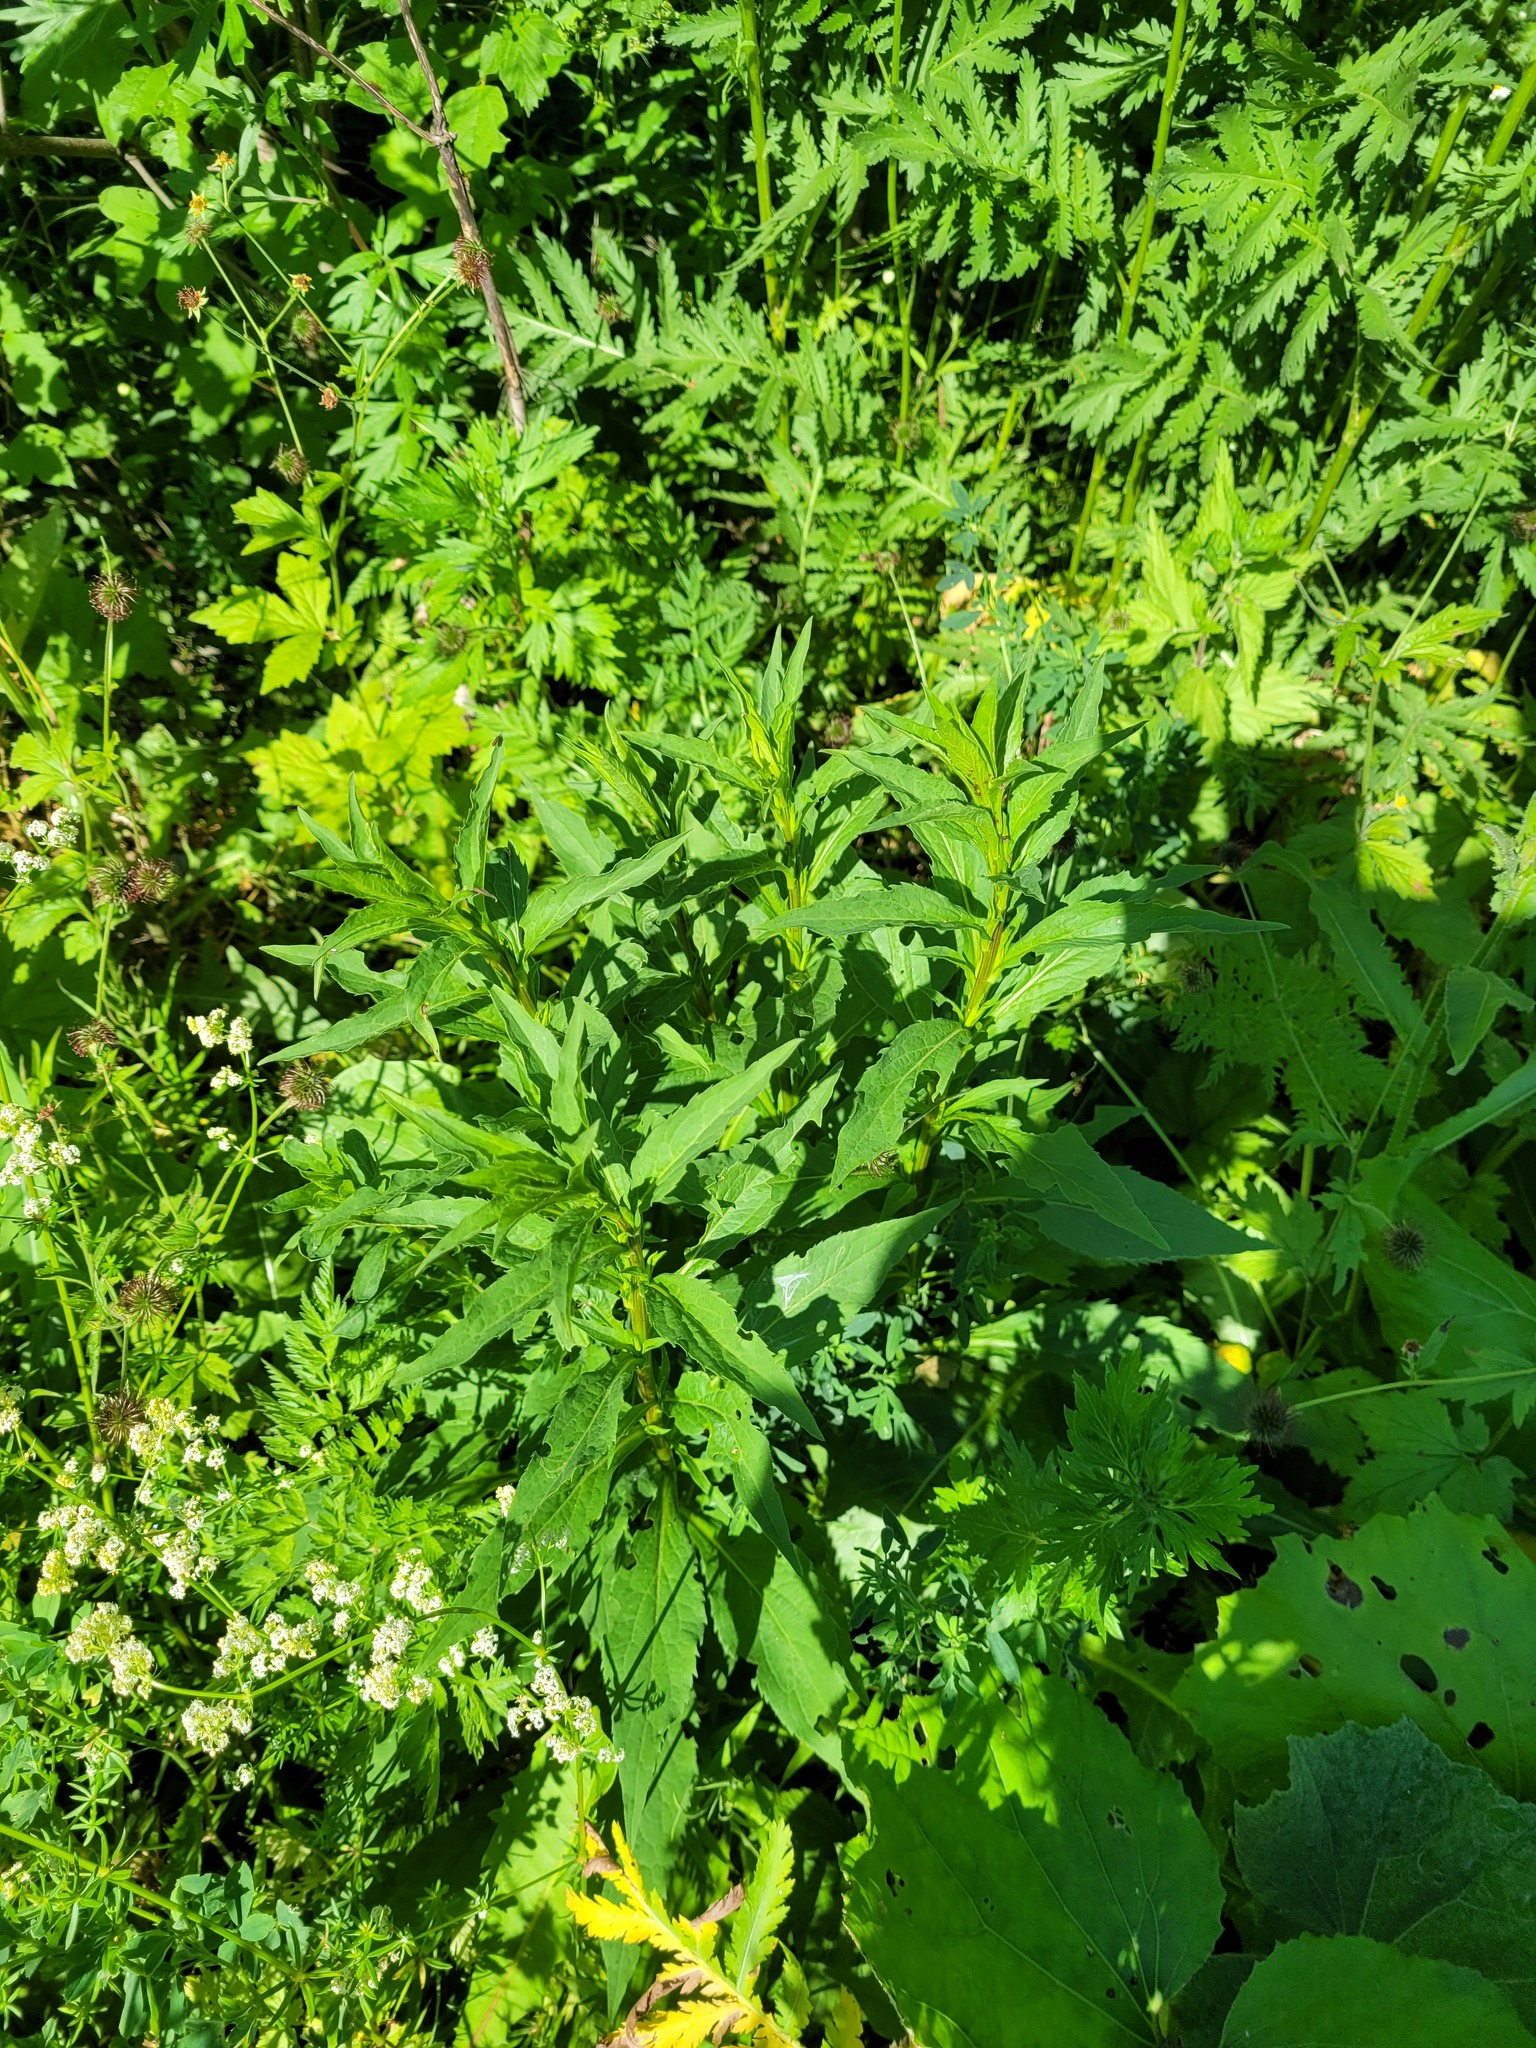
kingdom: Plantae
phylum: Tracheophyta
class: Magnoliopsida
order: Asterales
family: Asteraceae
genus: Solidago
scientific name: Solidago virgaurea
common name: Goldenrod
